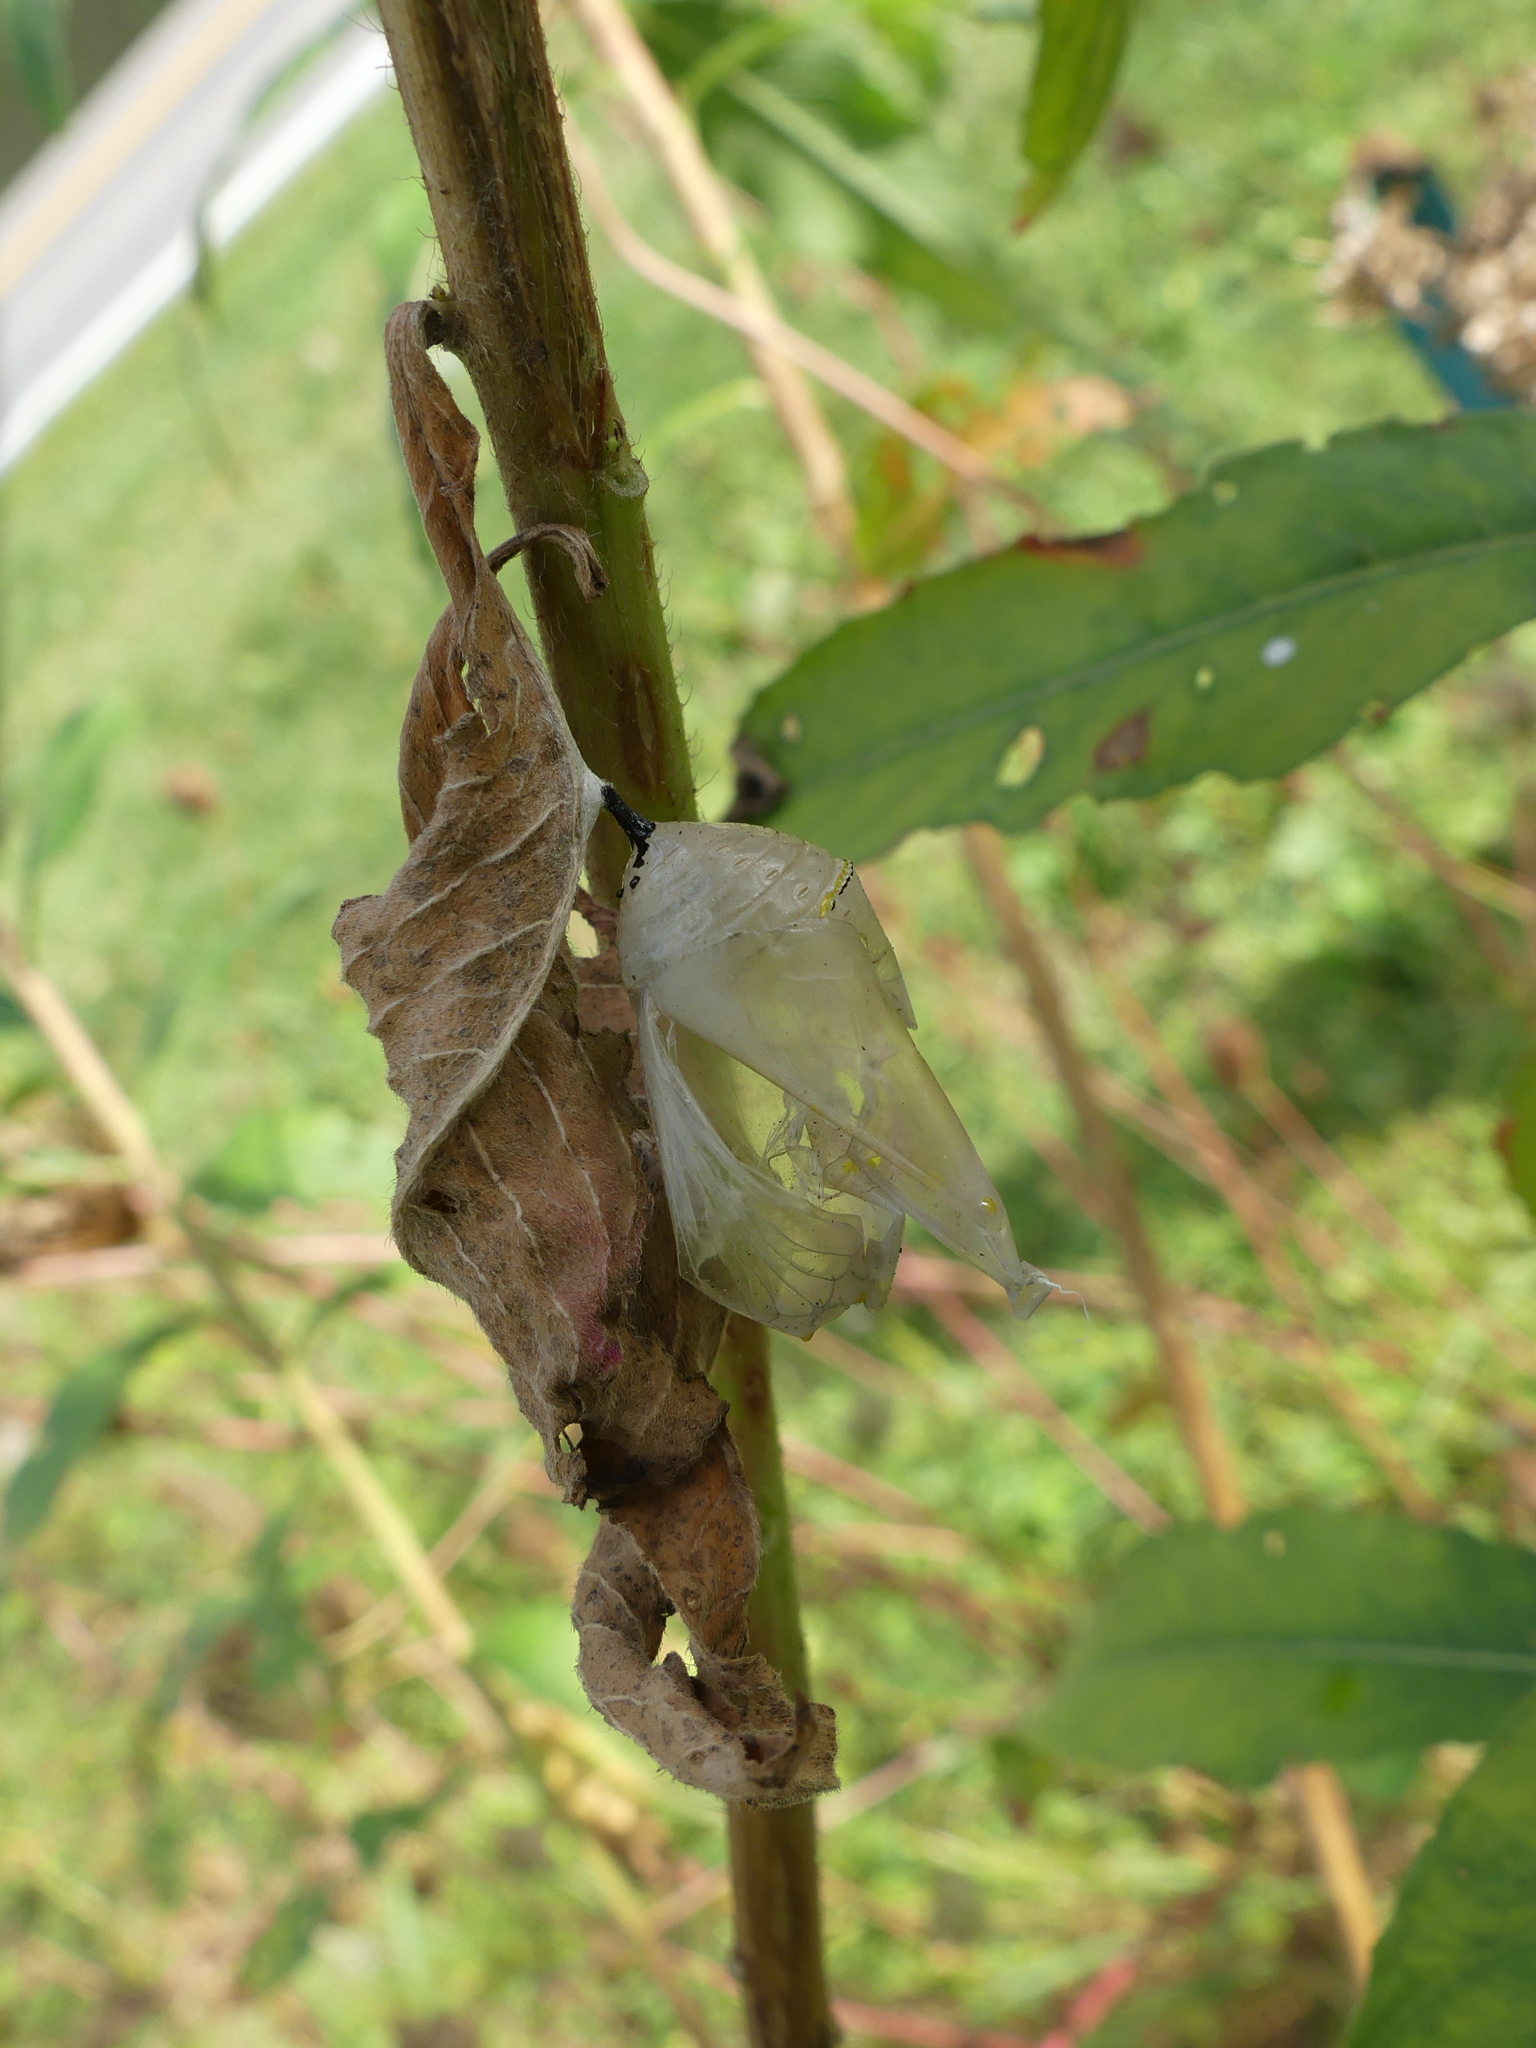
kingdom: Animalia
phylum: Arthropoda
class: Insecta
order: Lepidoptera
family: Nymphalidae
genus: Danaus
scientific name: Danaus plexippus
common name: Monarch
